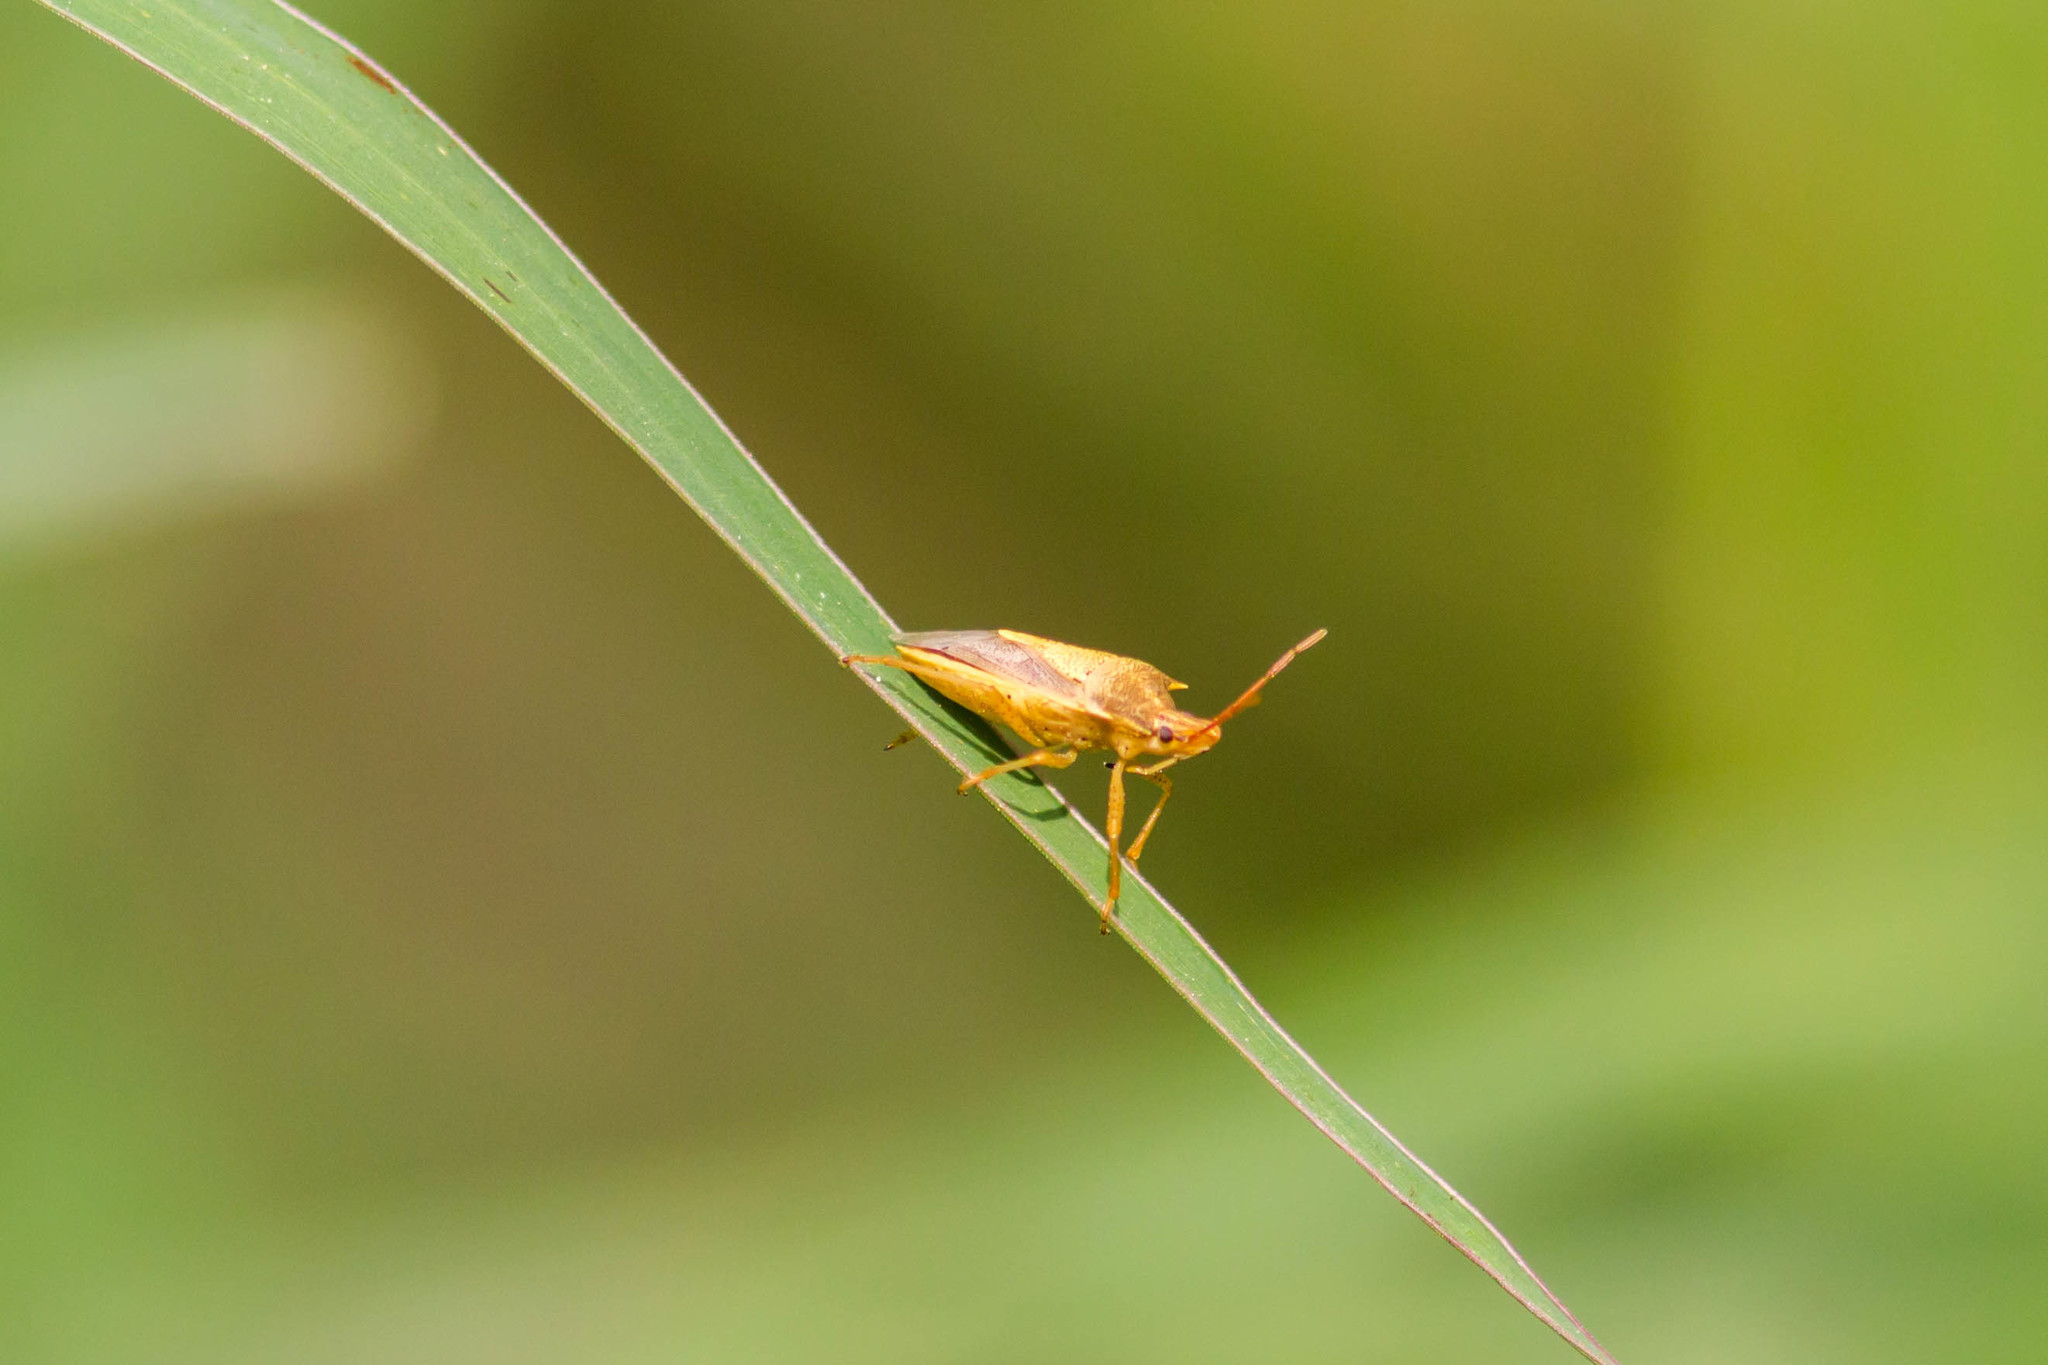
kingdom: Animalia
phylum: Arthropoda
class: Insecta
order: Hemiptera
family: Pentatomidae
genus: Oebalus
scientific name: Oebalus pugnax
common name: Rice stink bug
